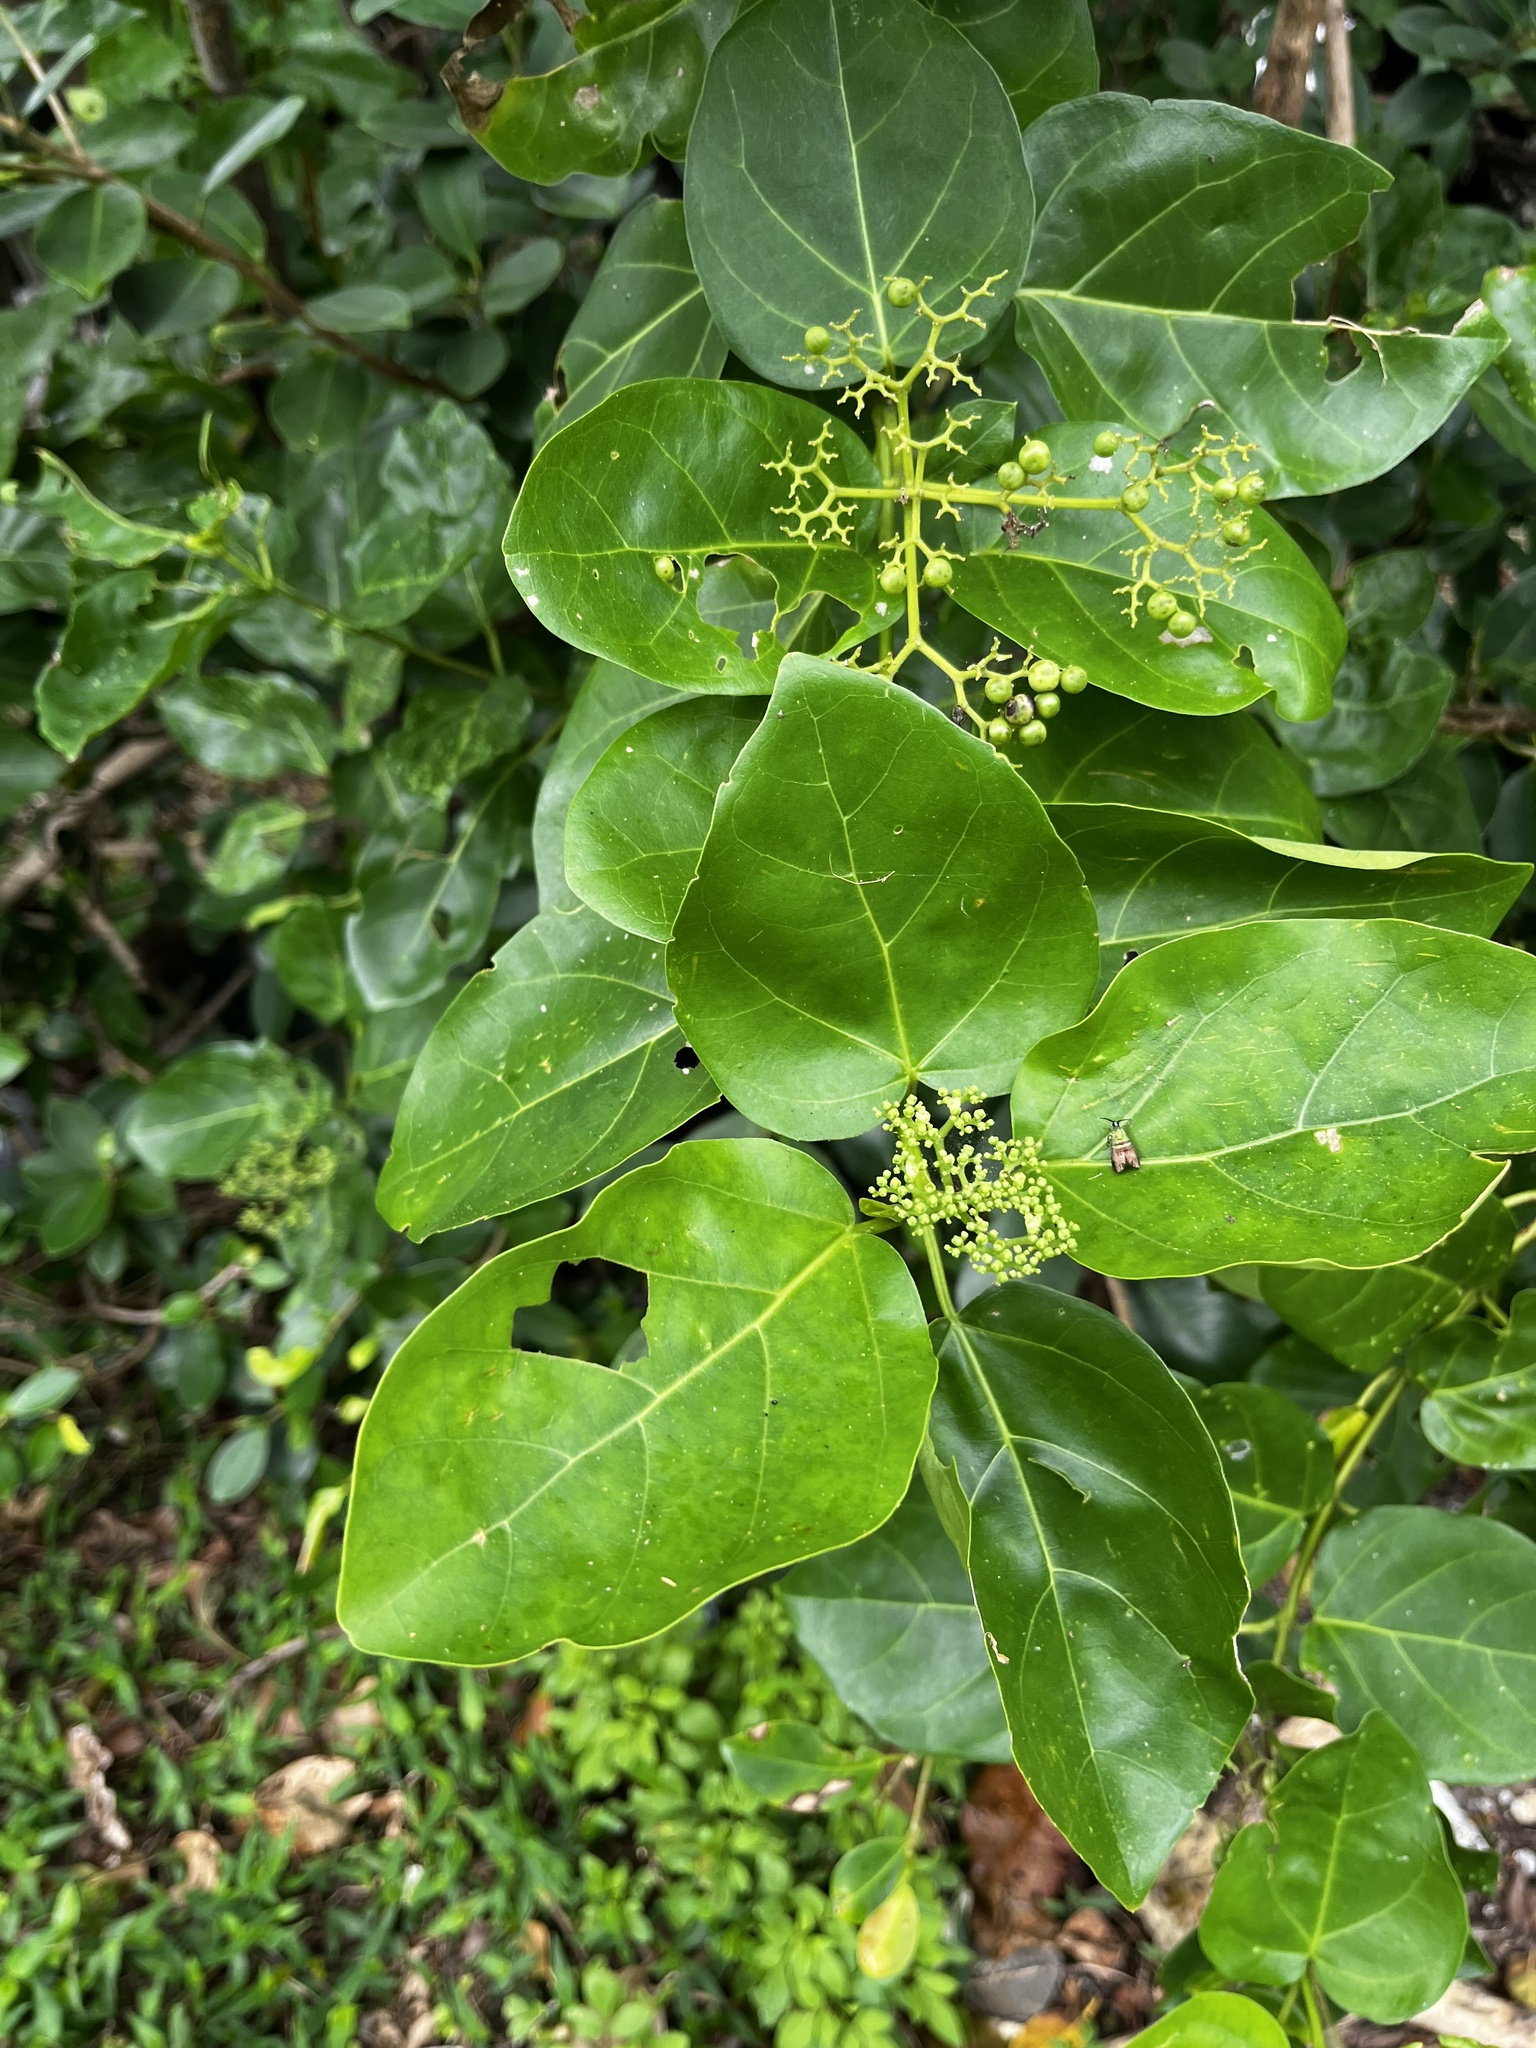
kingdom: Plantae
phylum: Tracheophyta
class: Magnoliopsida
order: Lamiales
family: Lamiaceae
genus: Premna
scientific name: Premna serratifolia
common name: Bastard guelder
